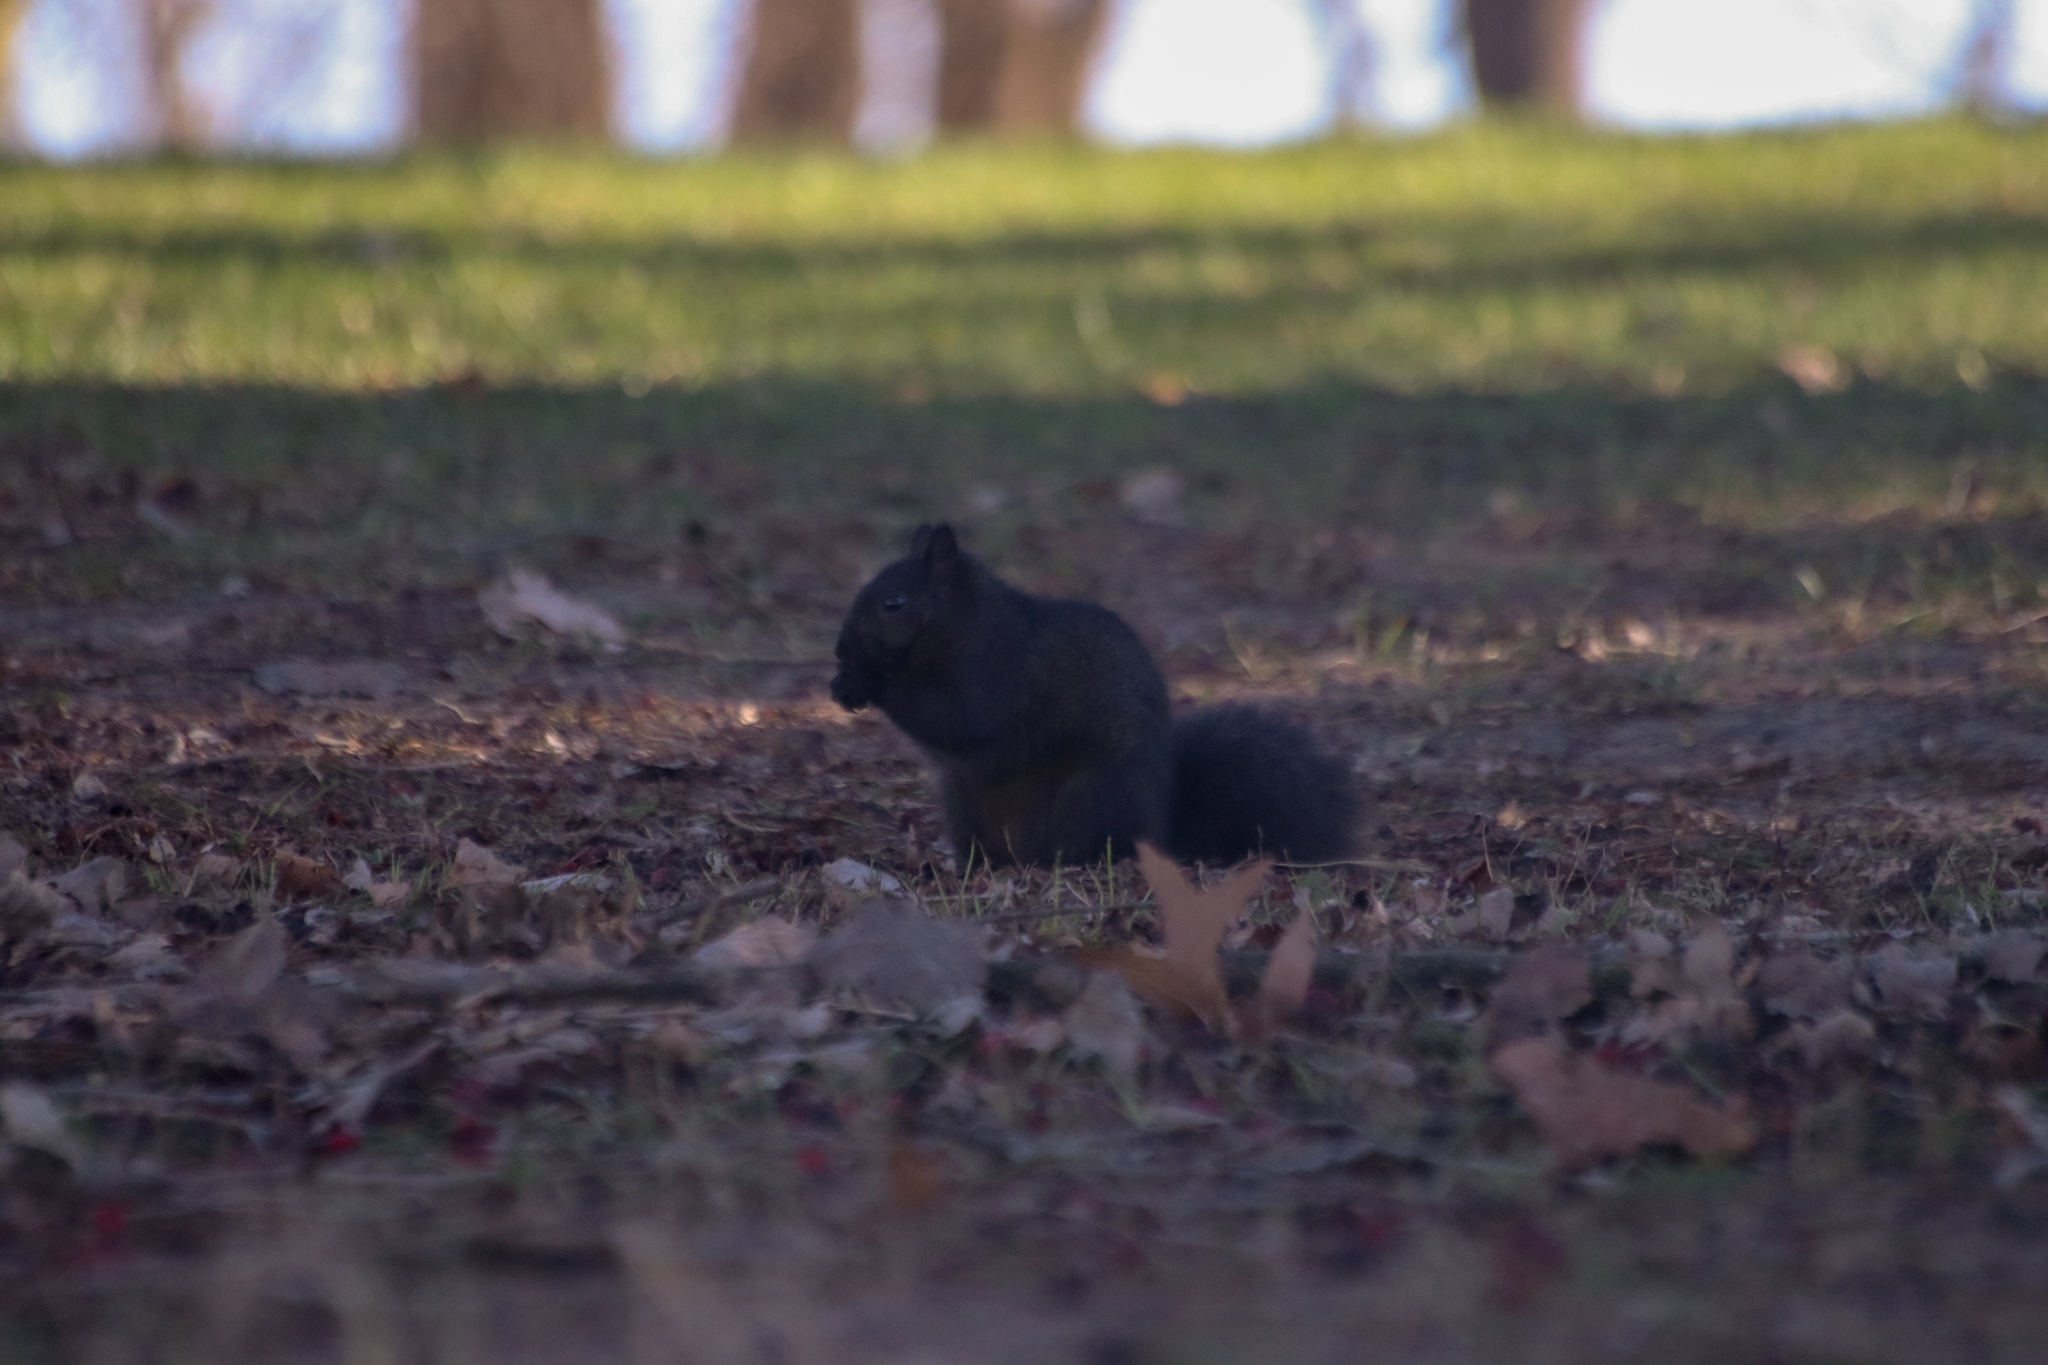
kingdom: Animalia
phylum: Chordata
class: Mammalia
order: Rodentia
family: Sciuridae
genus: Sciurus
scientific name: Sciurus carolinensis
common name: Eastern gray squirrel
